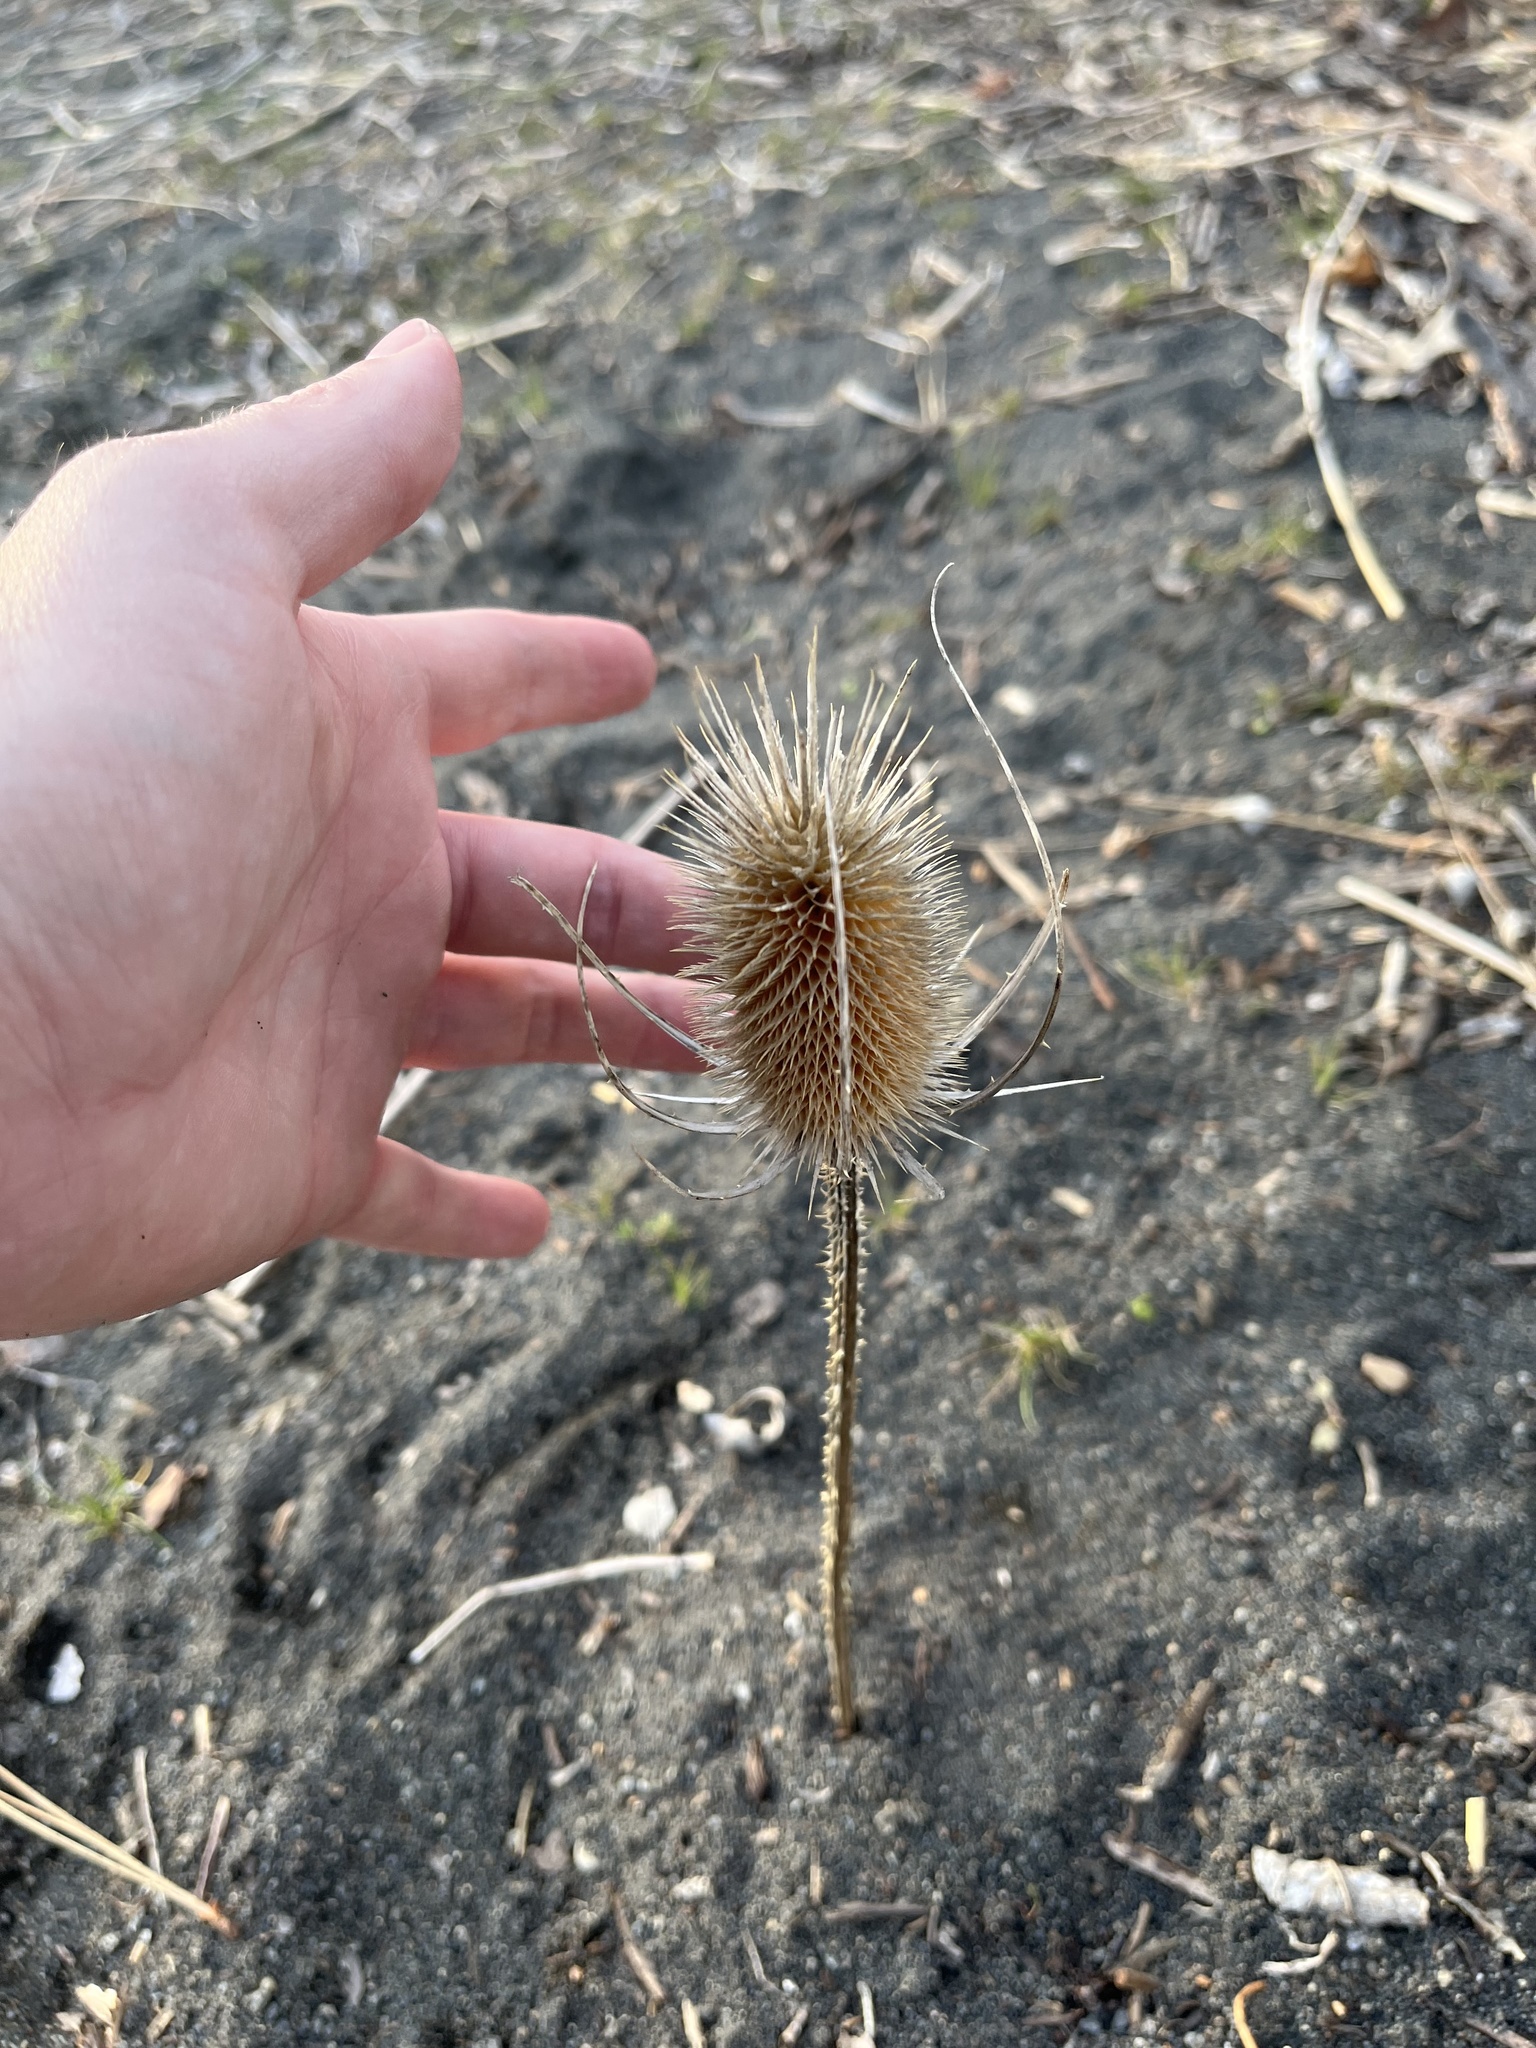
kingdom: Plantae
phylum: Tracheophyta
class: Magnoliopsida
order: Dipsacales
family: Caprifoliaceae
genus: Dipsacus
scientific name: Dipsacus fullonum
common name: Teasel
